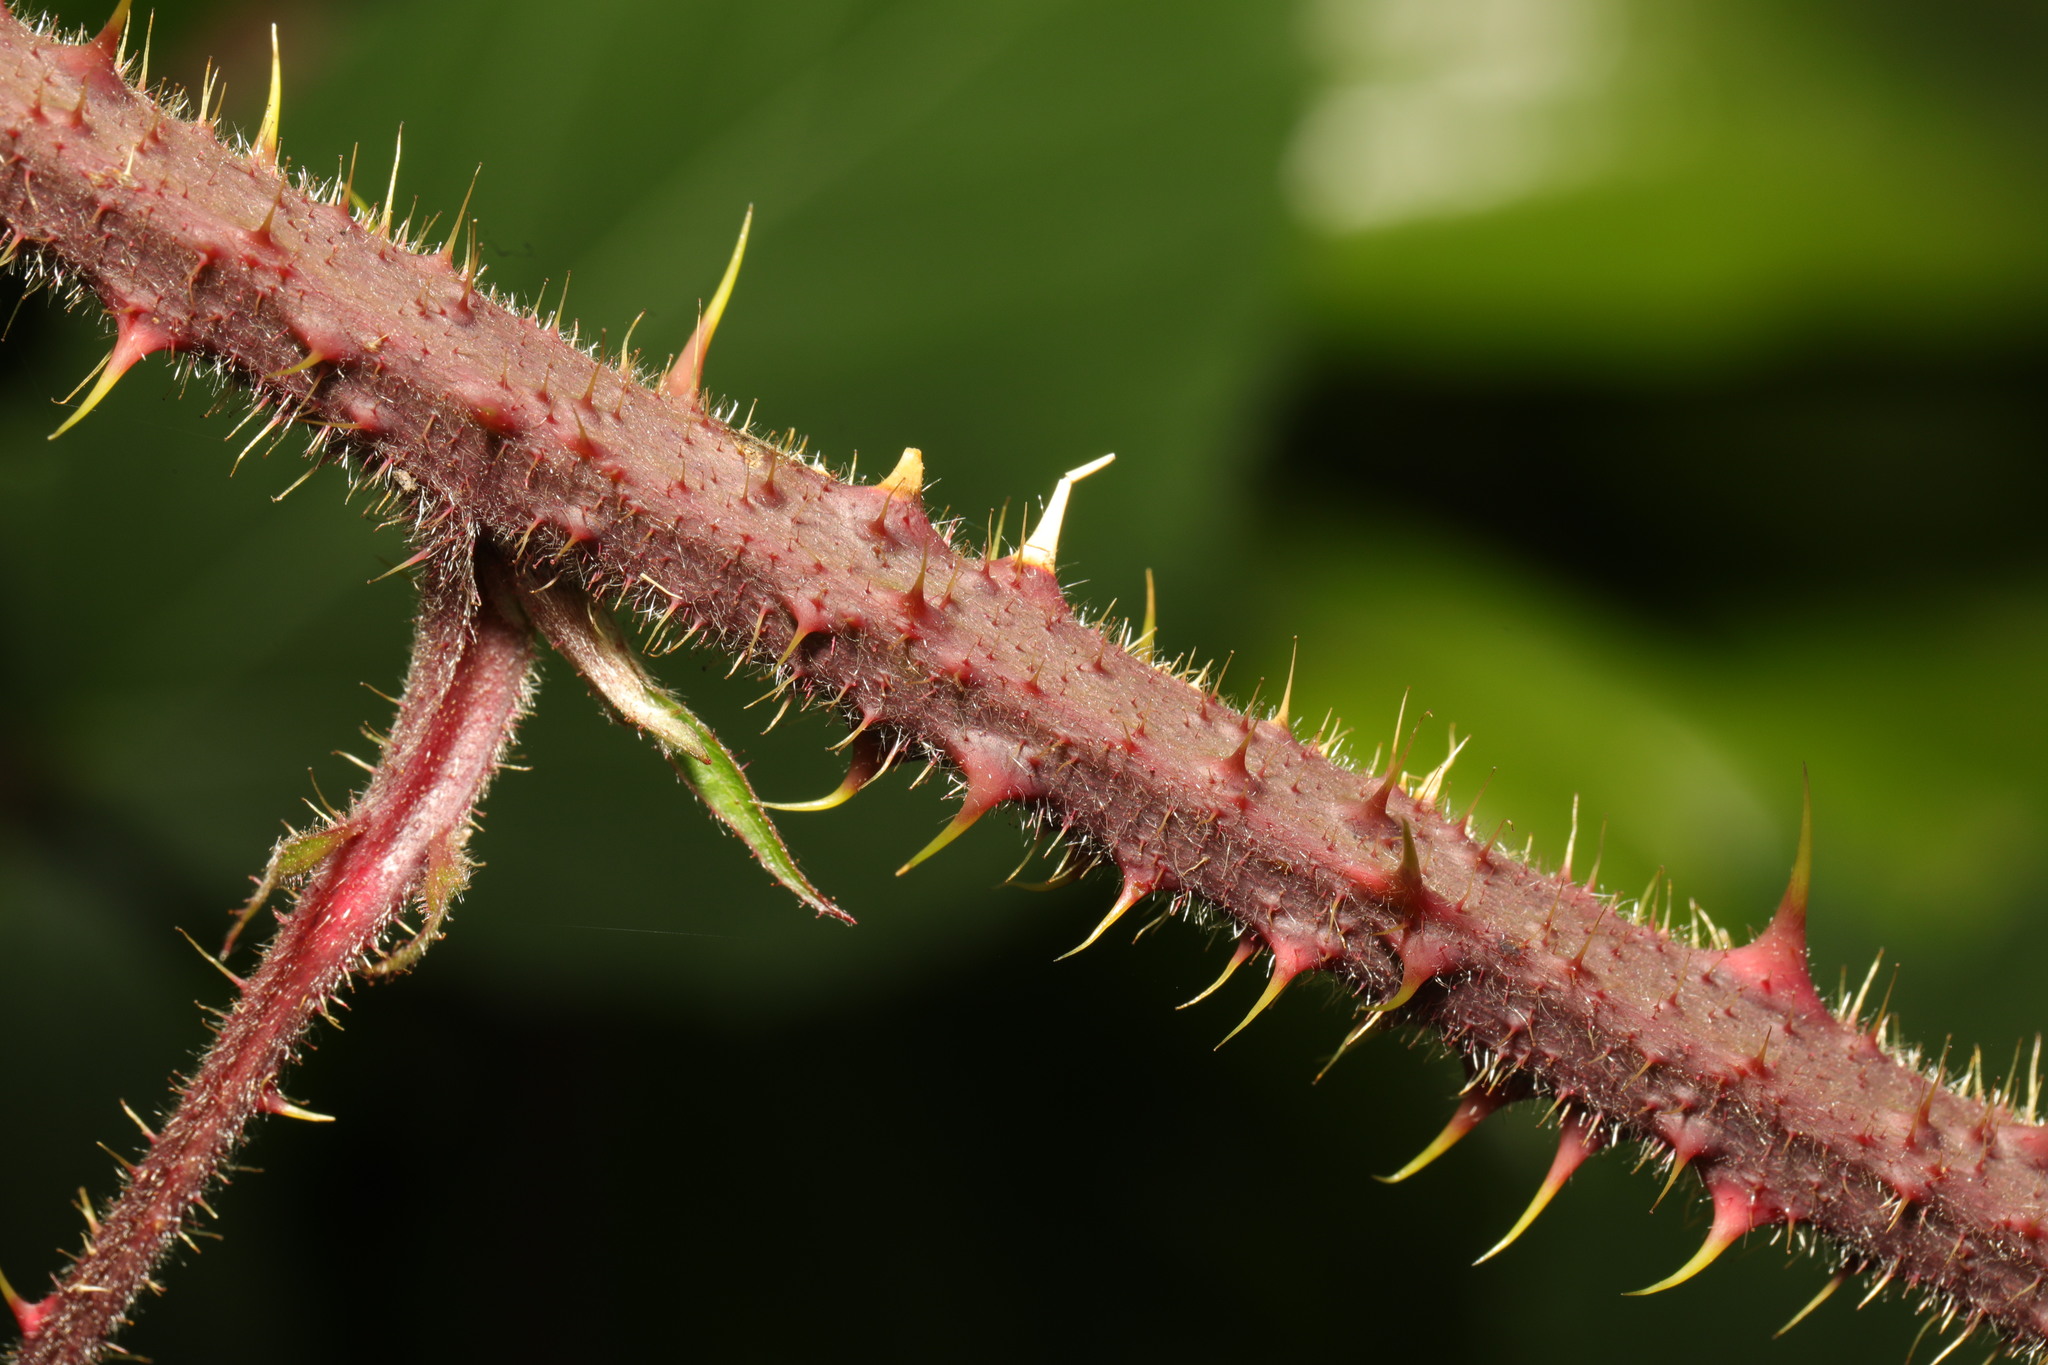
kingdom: Plantae
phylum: Tracheophyta
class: Magnoliopsida
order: Rosales
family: Rosaceae
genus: Rubus
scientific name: Rubus dasyphyllus
